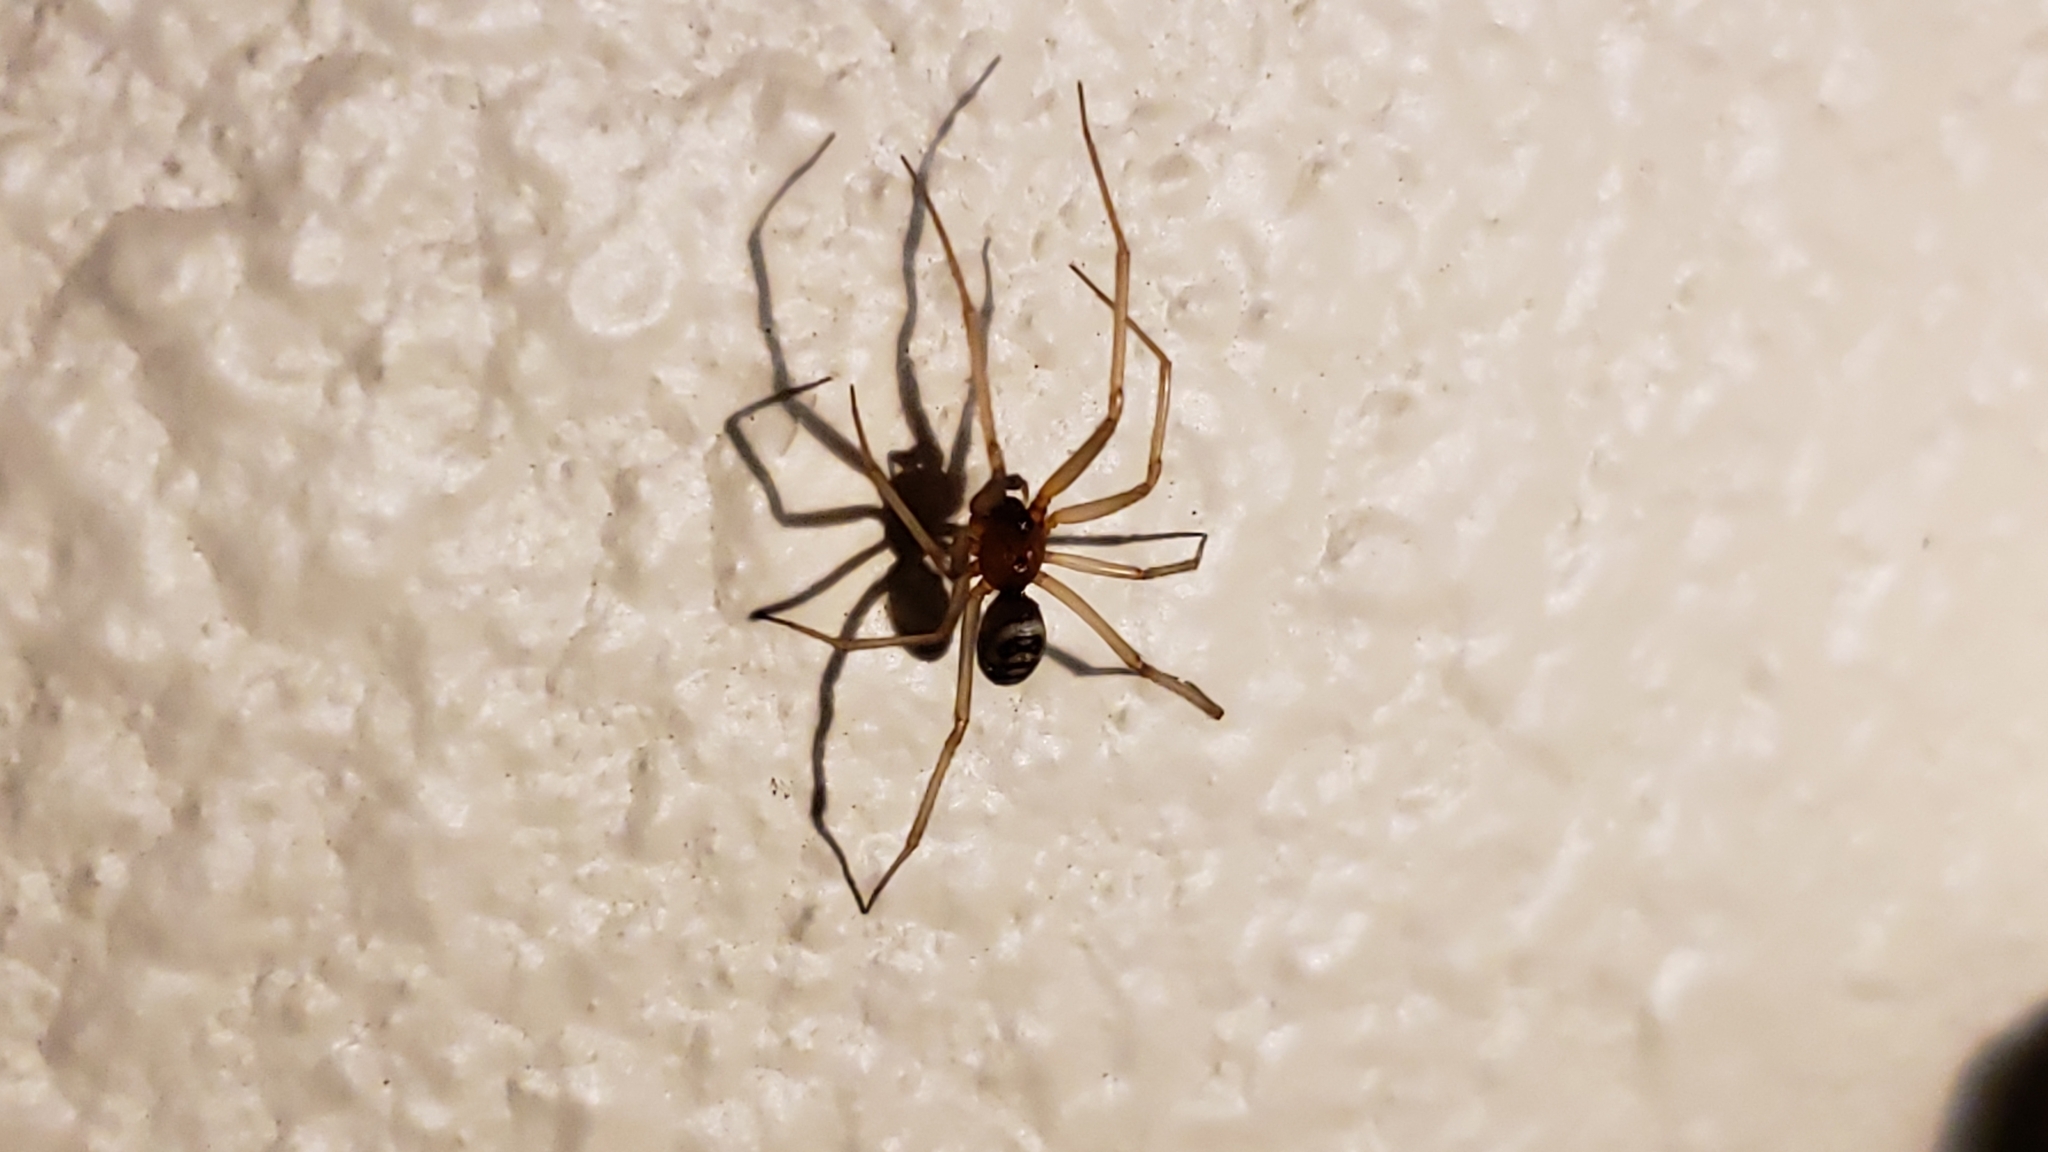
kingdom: Animalia
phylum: Arthropoda
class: Arachnida
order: Araneae
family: Theridiidae
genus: Steatoda
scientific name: Steatoda grossa
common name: False black widow
